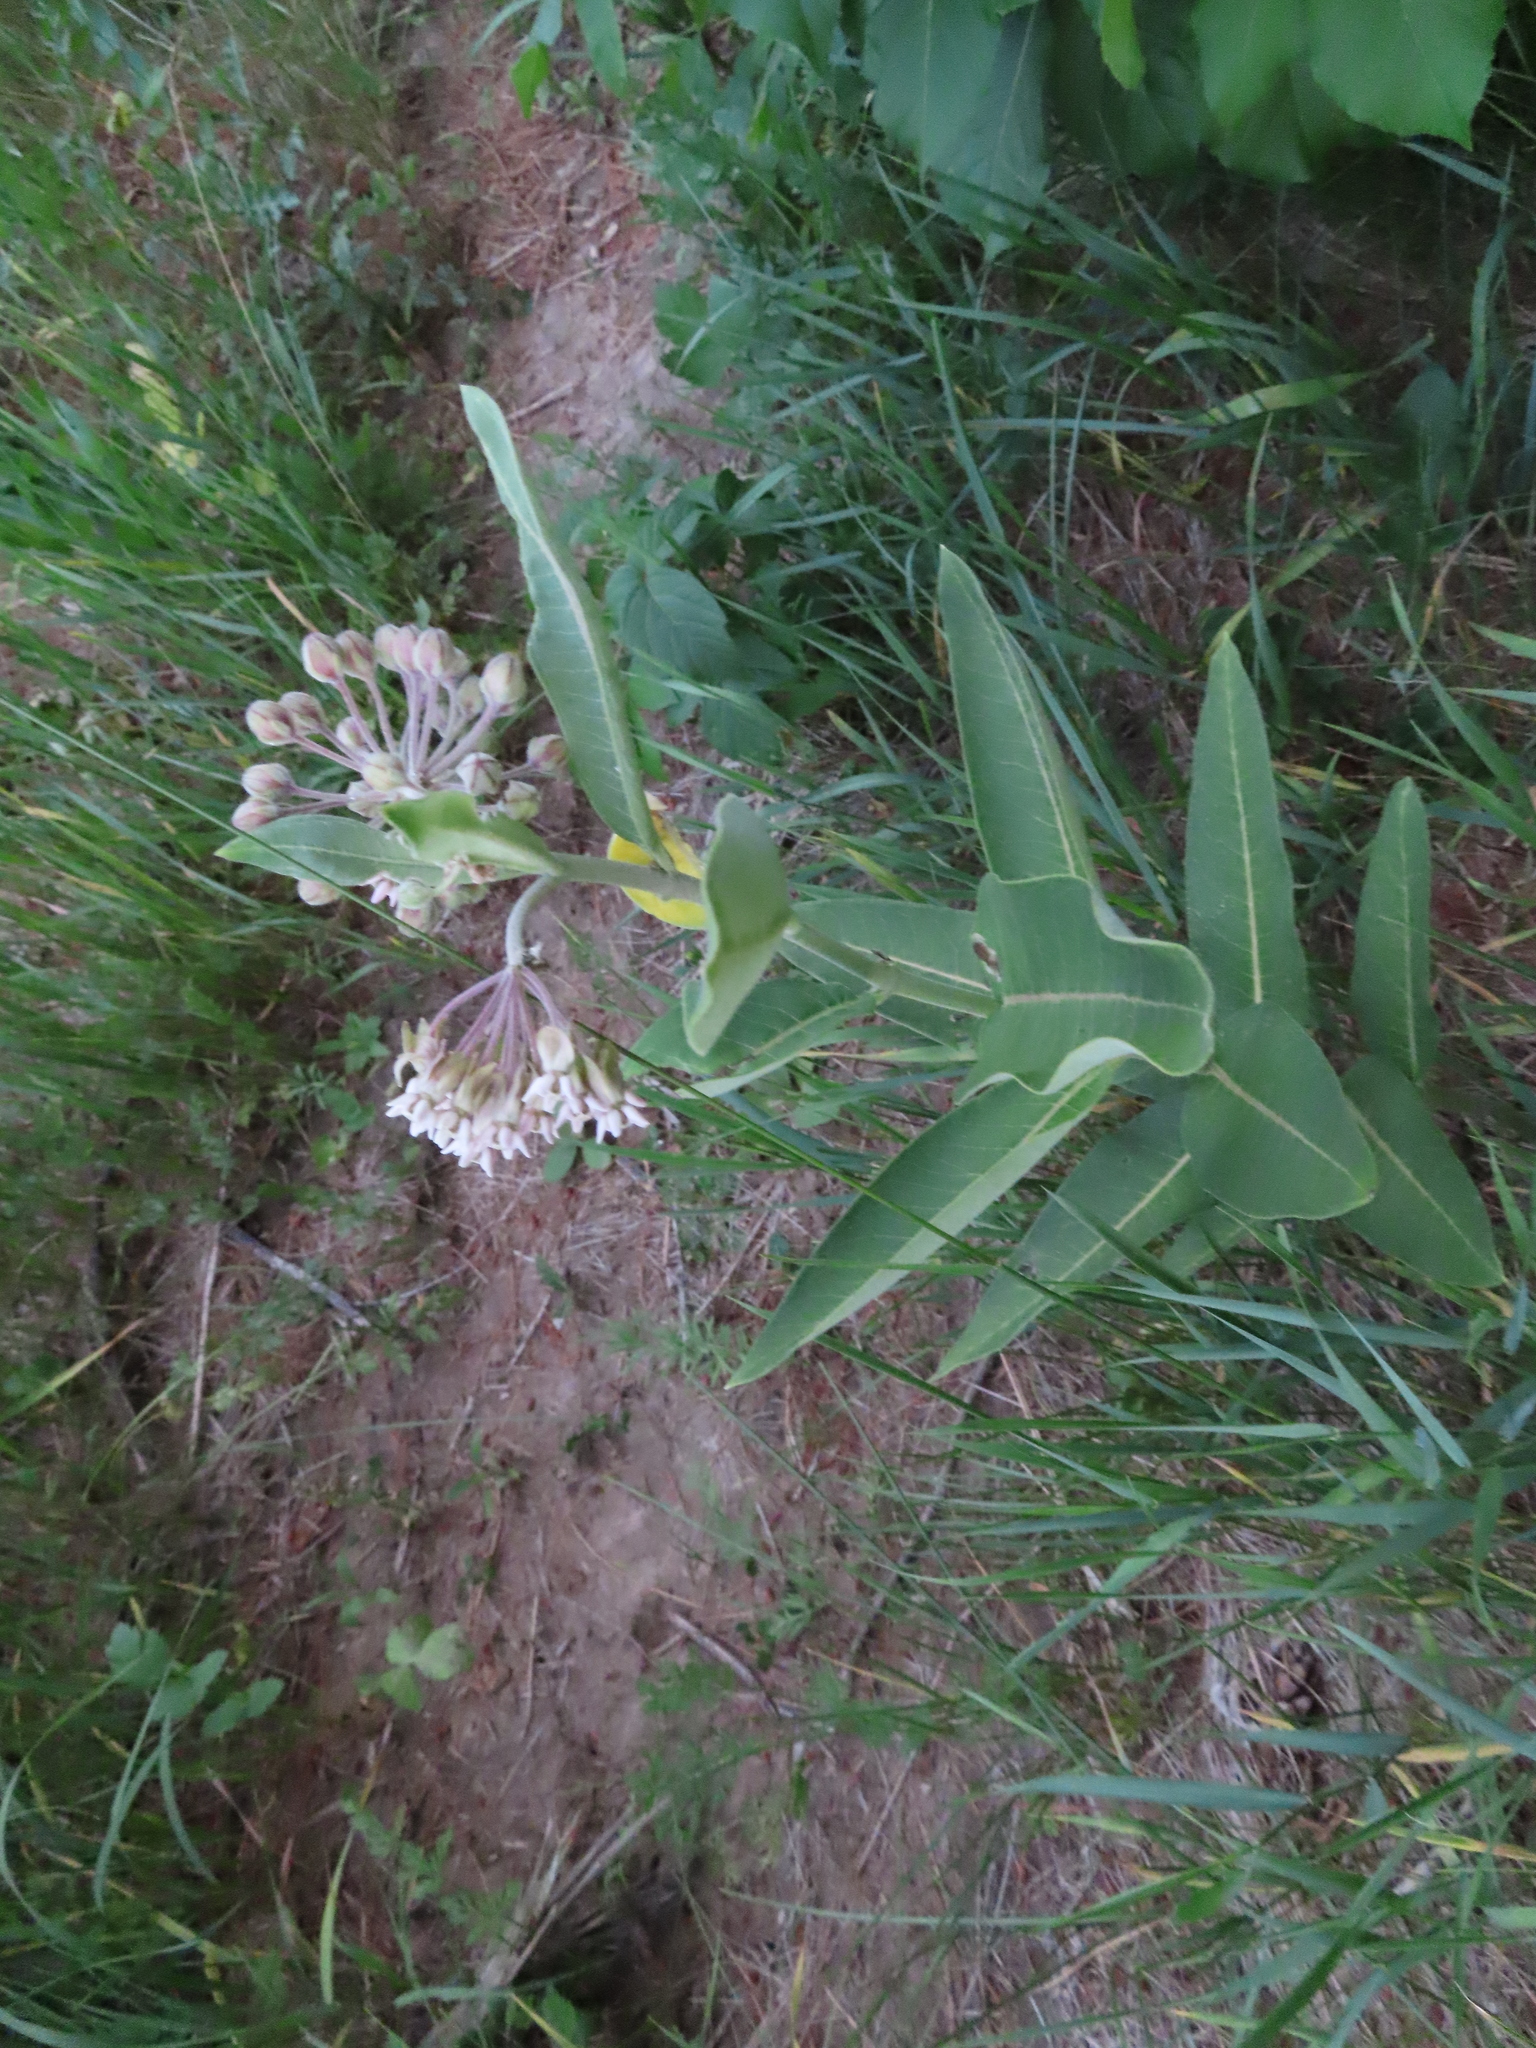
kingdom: Plantae
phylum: Tracheophyta
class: Magnoliopsida
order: Gentianales
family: Apocynaceae
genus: Asclepias
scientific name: Asclepias syriaca
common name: Common milkweed
